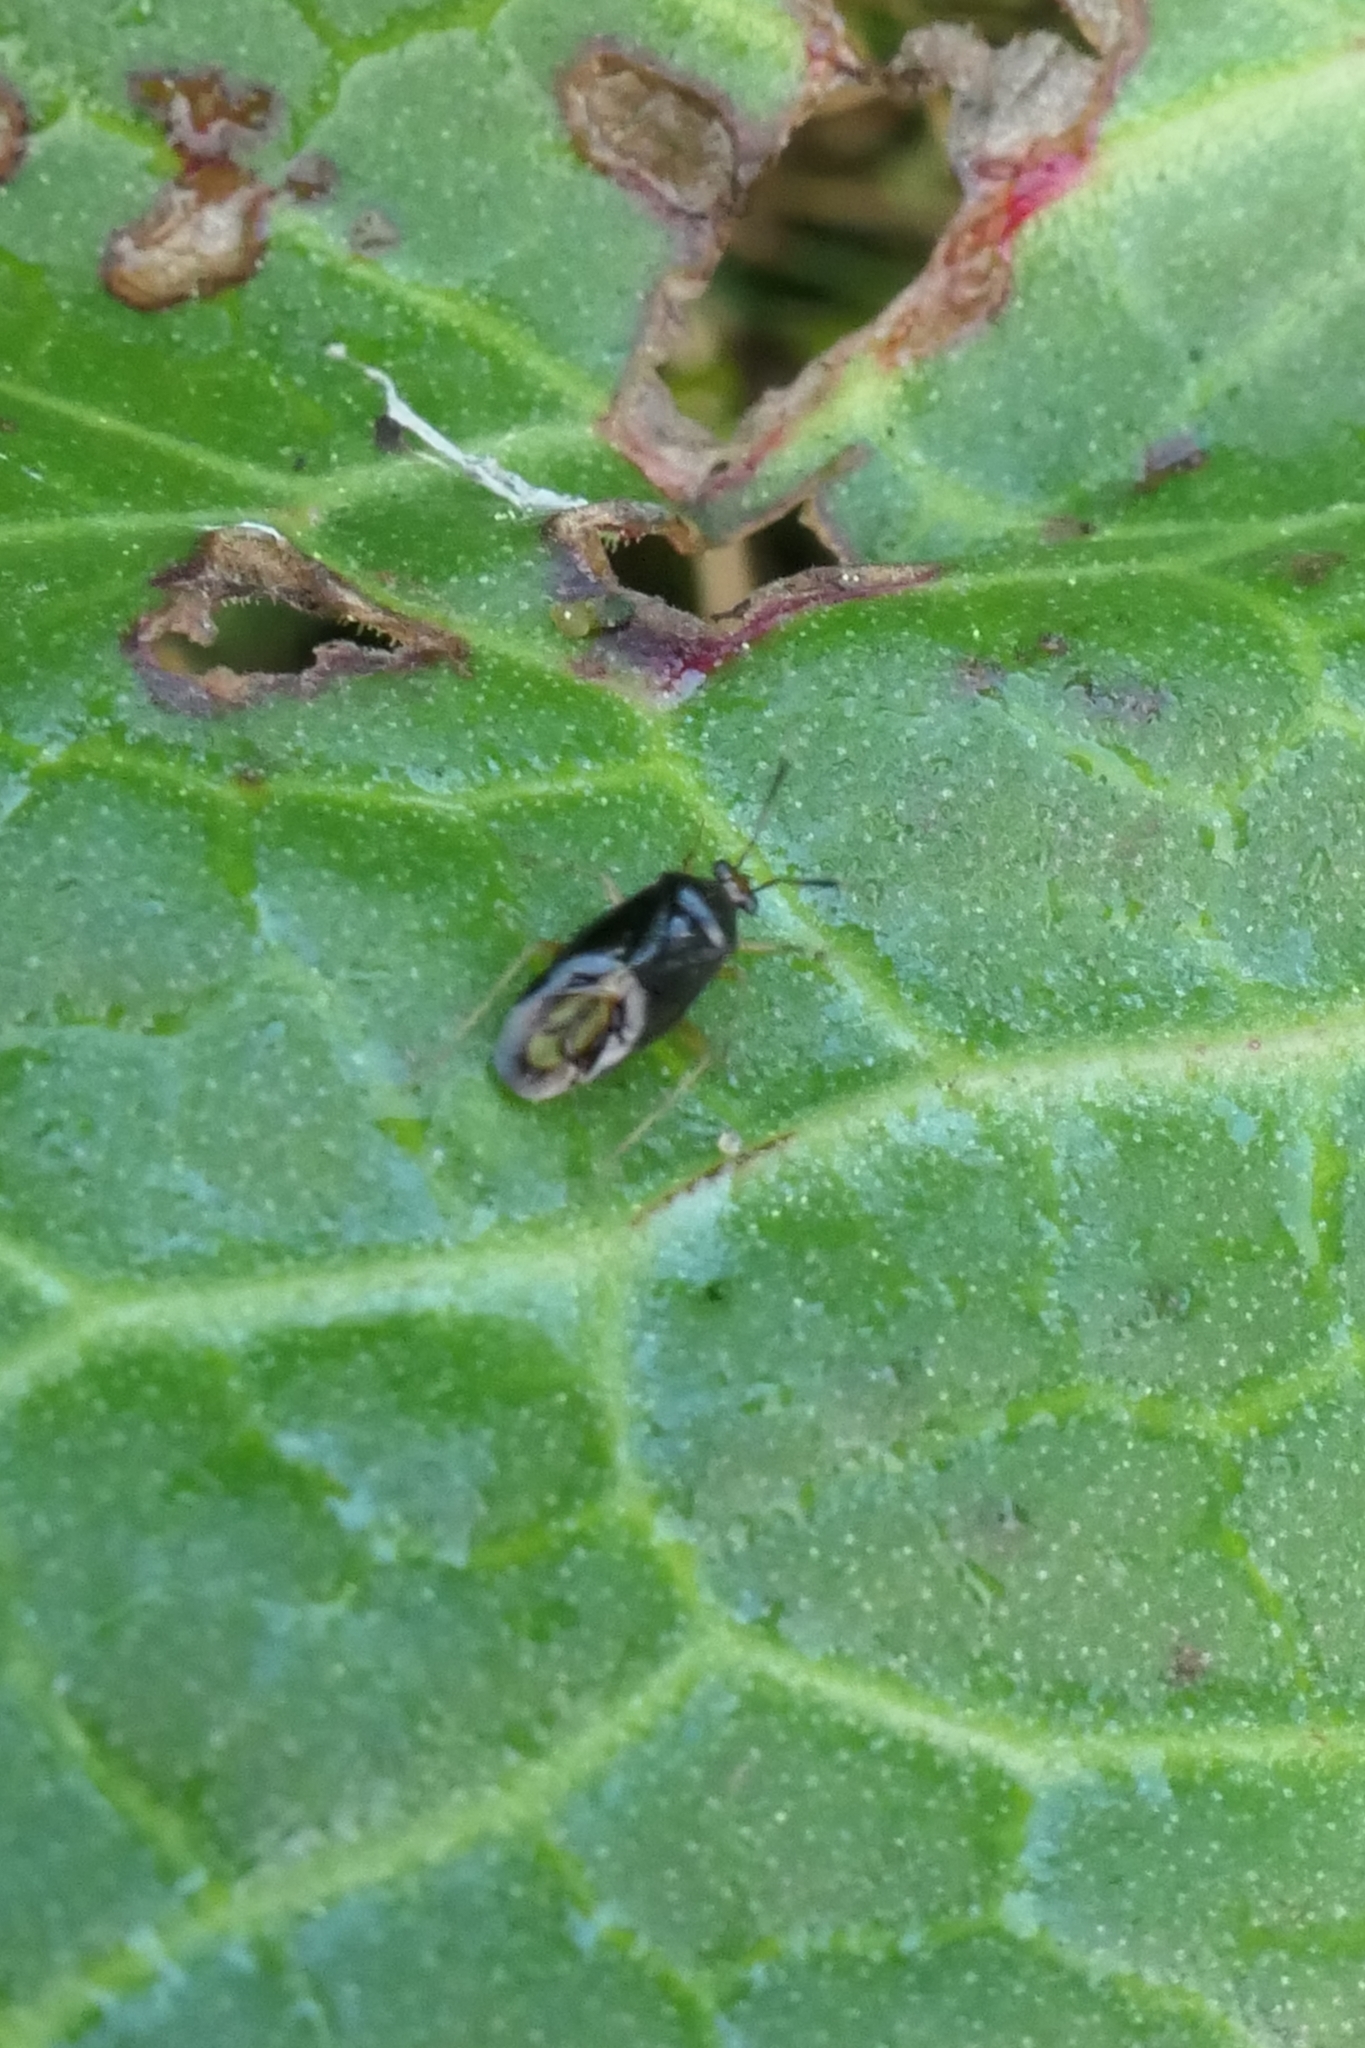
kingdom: Animalia
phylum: Arthropoda
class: Insecta
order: Hemiptera
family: Miridae
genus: Deraeocoris
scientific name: Deraeocoris maoricus
